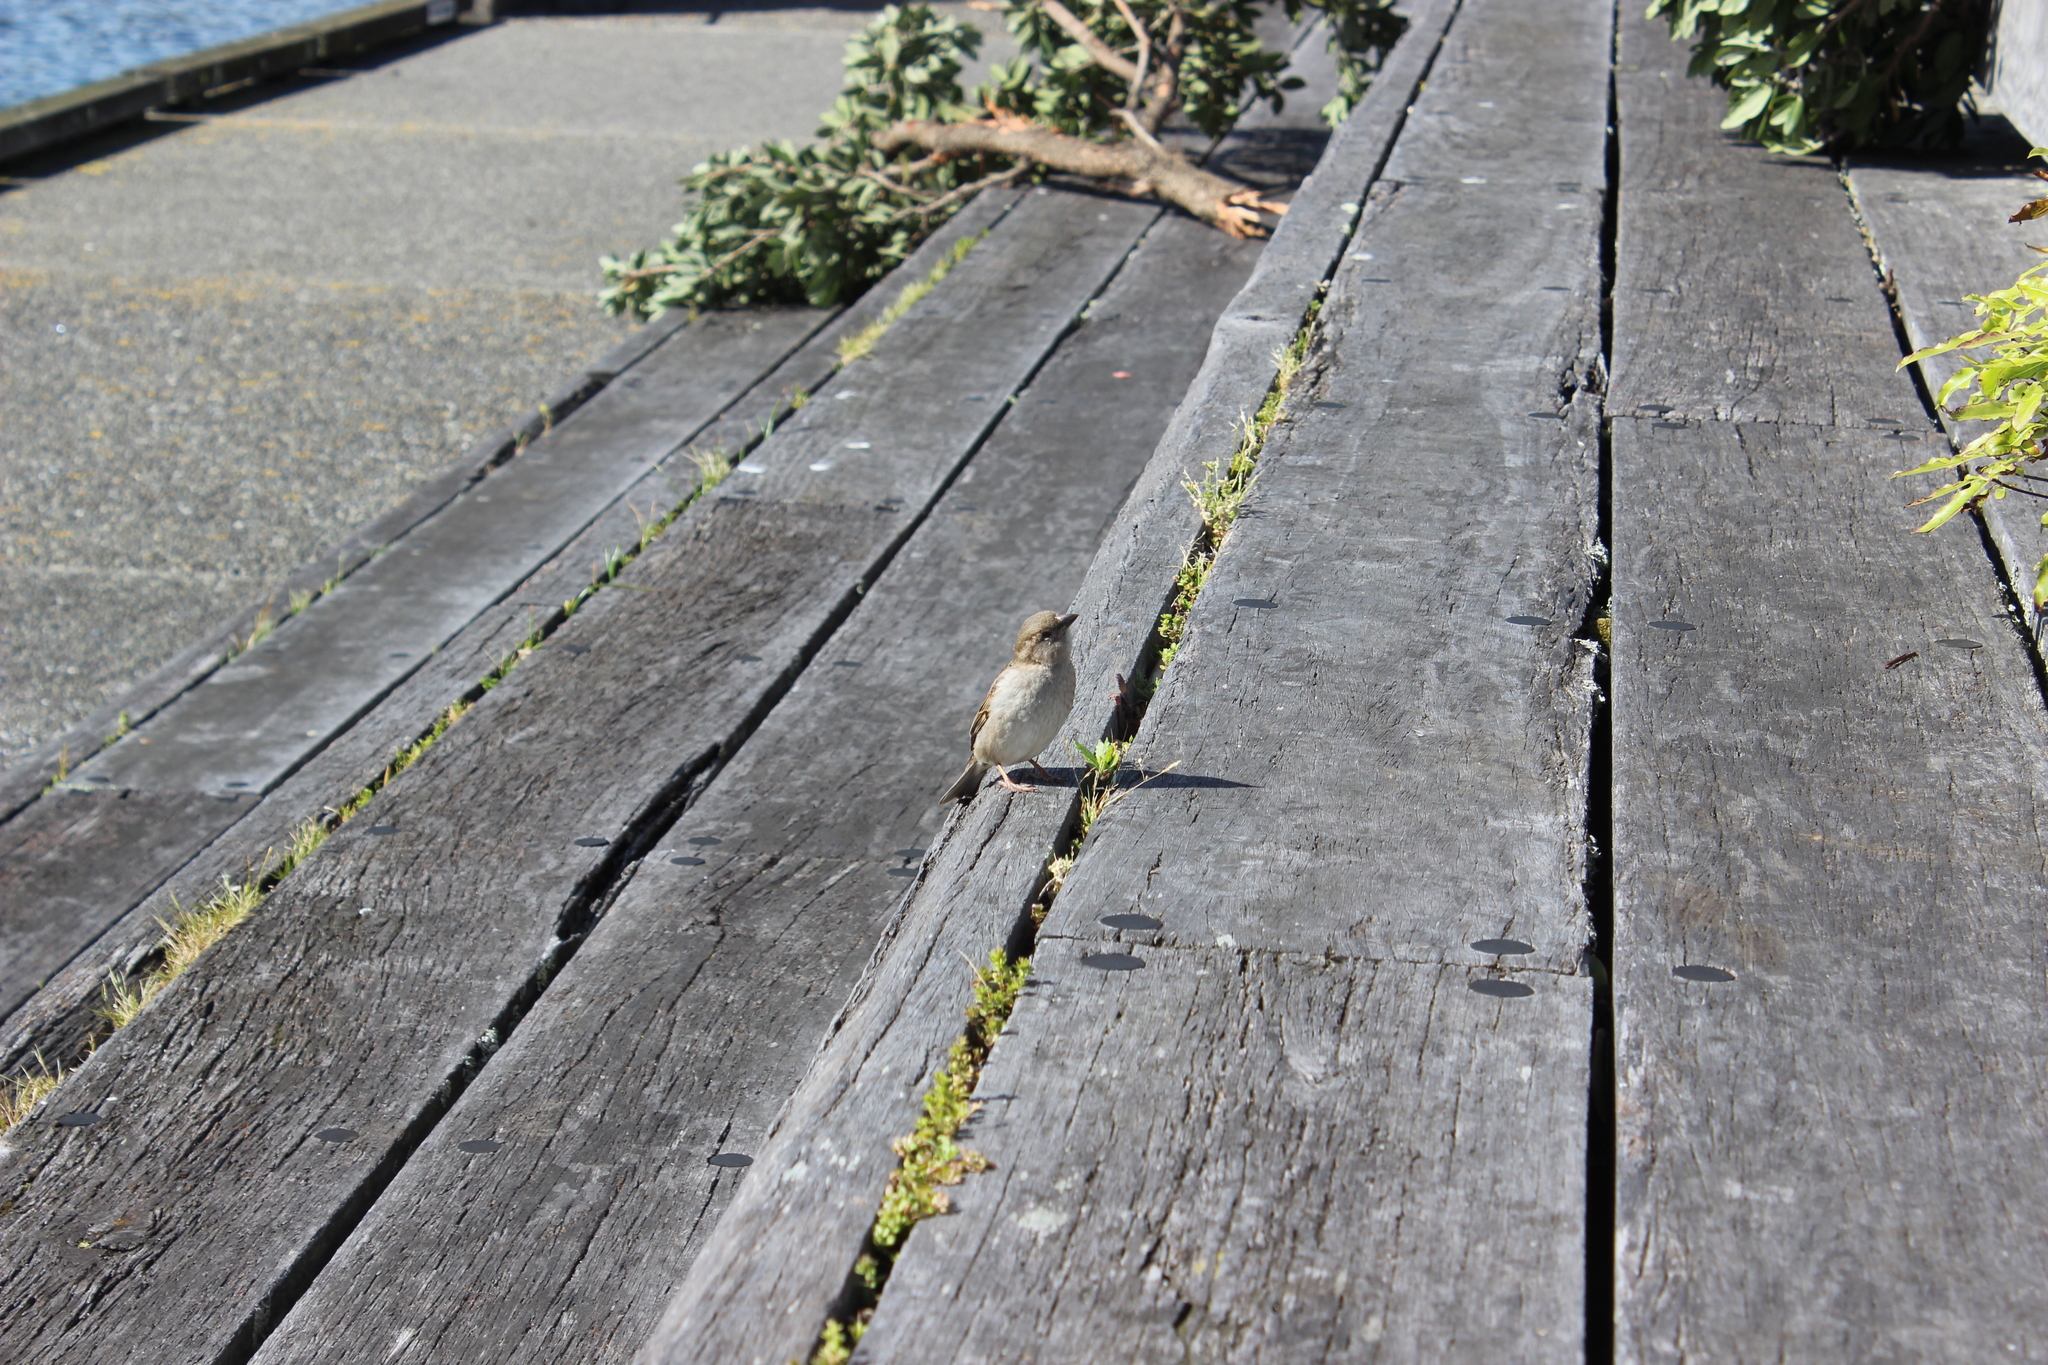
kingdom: Animalia
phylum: Chordata
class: Aves
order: Passeriformes
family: Passeridae
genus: Passer
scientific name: Passer domesticus
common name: House sparrow
